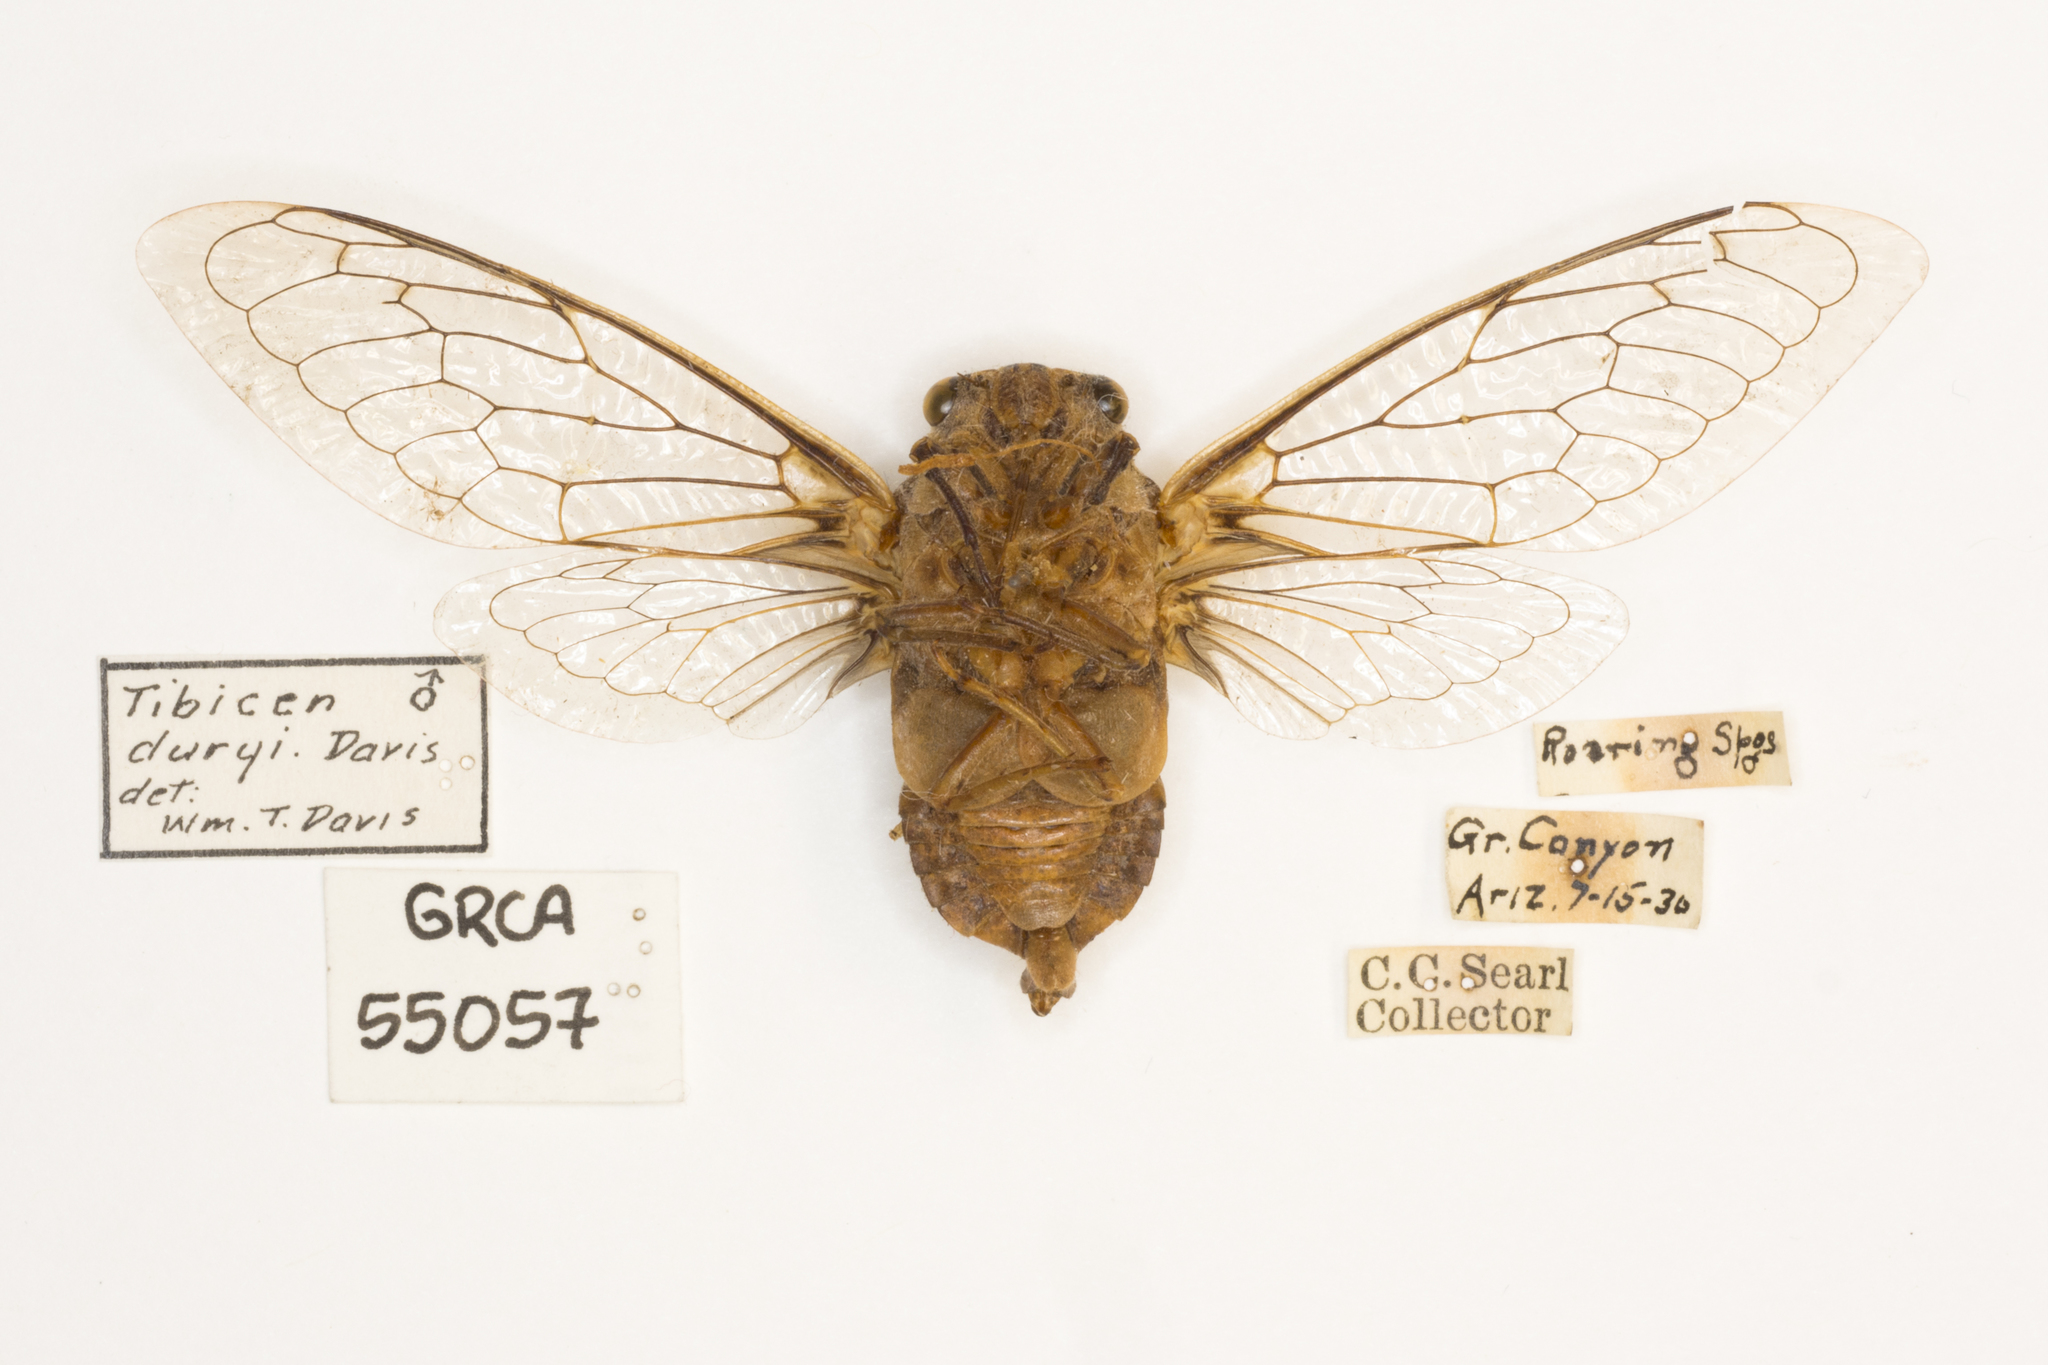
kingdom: Animalia
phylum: Arthropoda
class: Insecta
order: Hemiptera
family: Cicadidae
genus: Cacama
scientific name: Cacama valvata
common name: Cactus dodger
